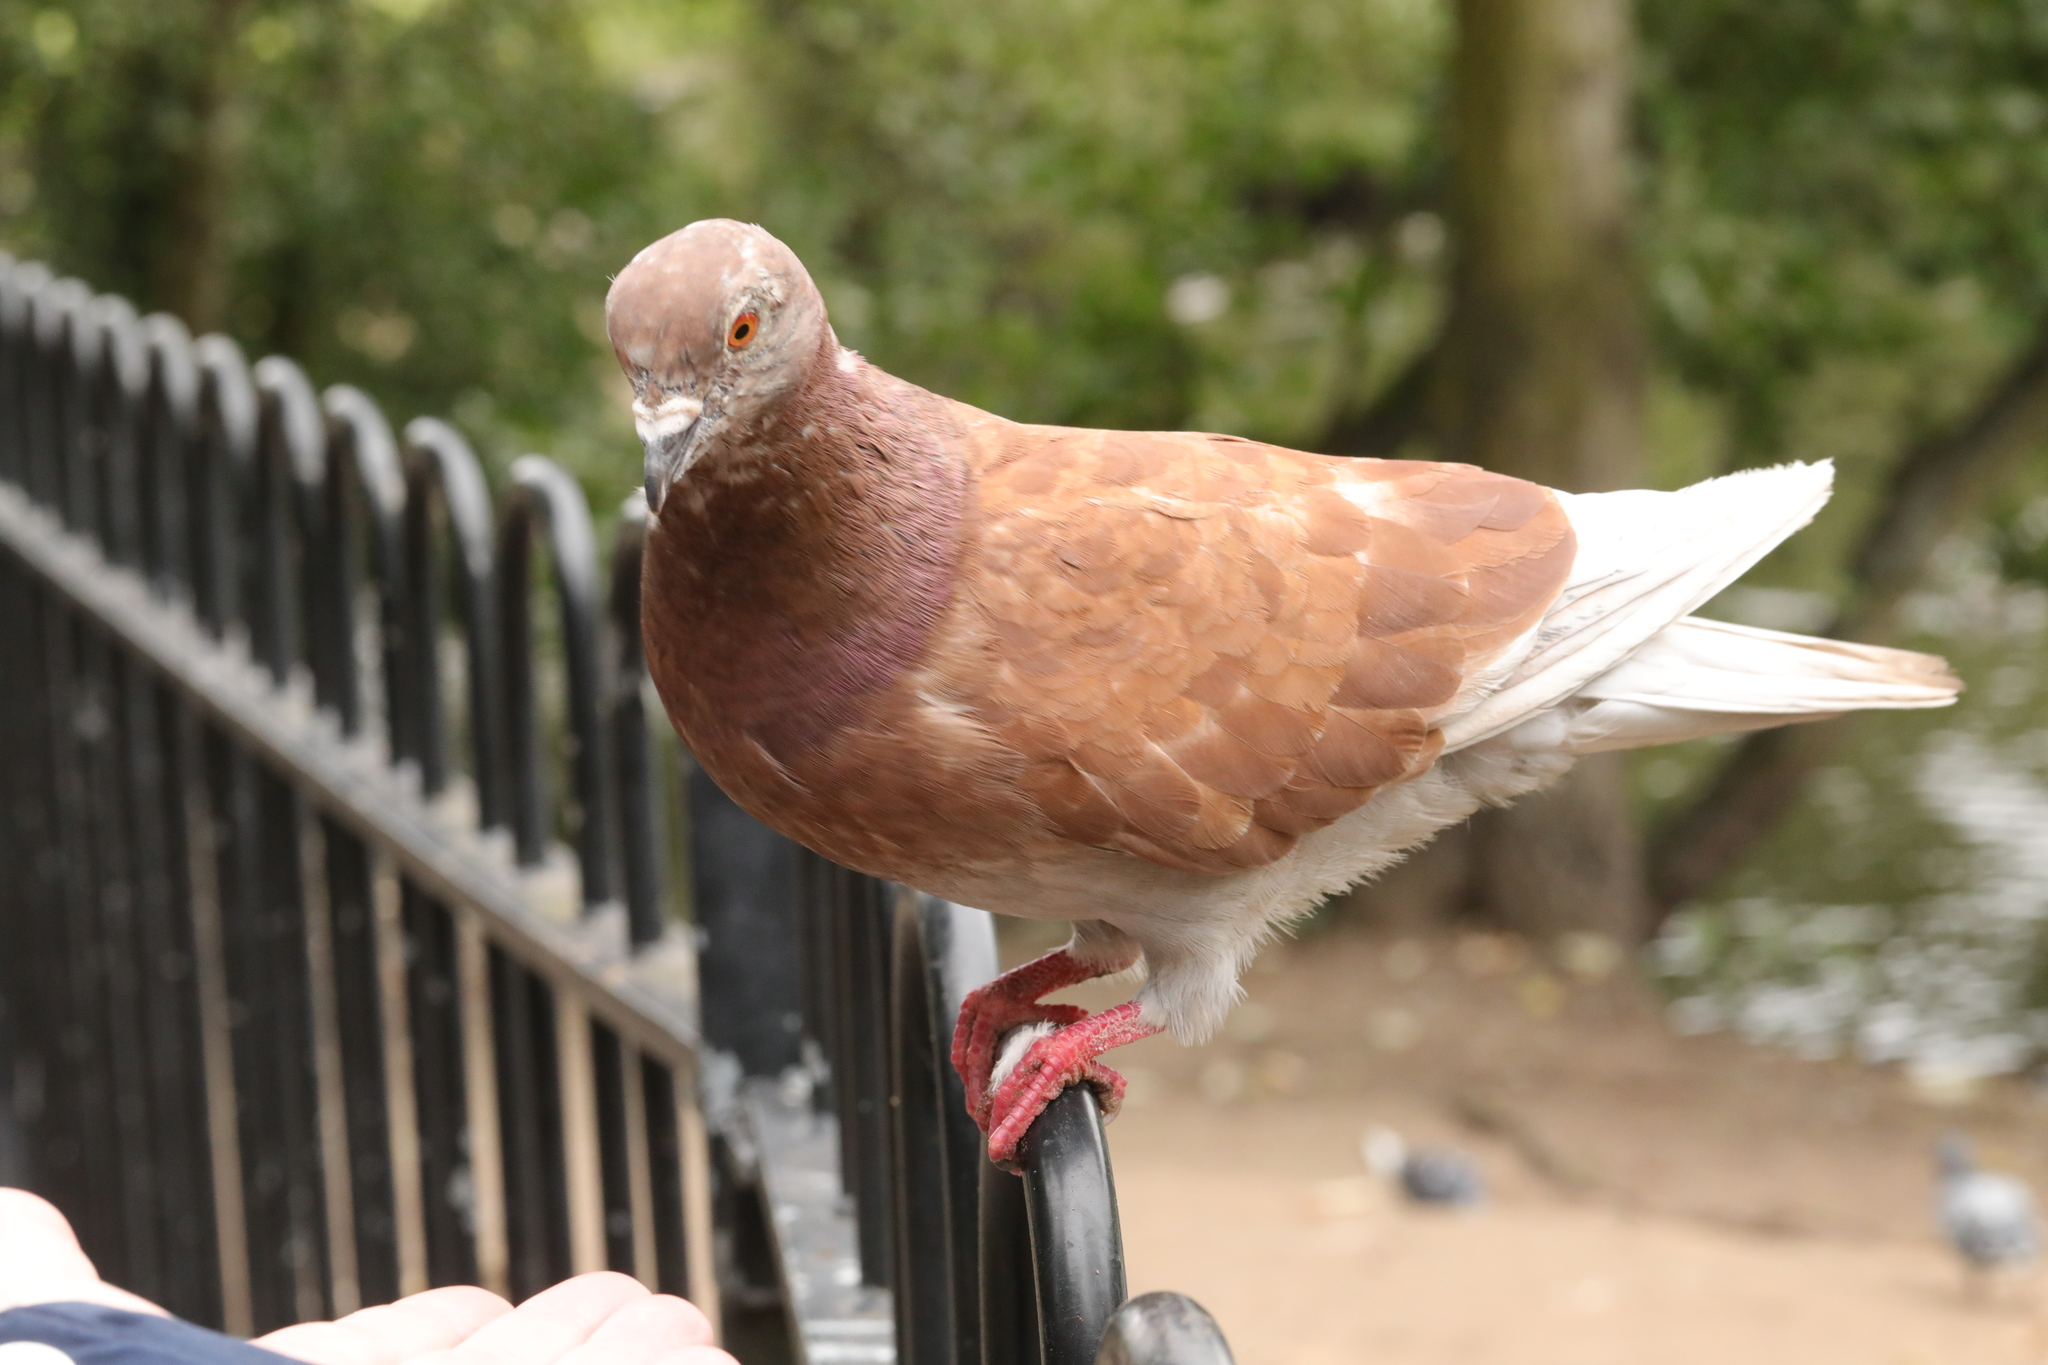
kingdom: Animalia
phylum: Chordata
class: Aves
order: Columbiformes
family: Columbidae
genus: Columba
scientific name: Columba livia
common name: Rock pigeon
